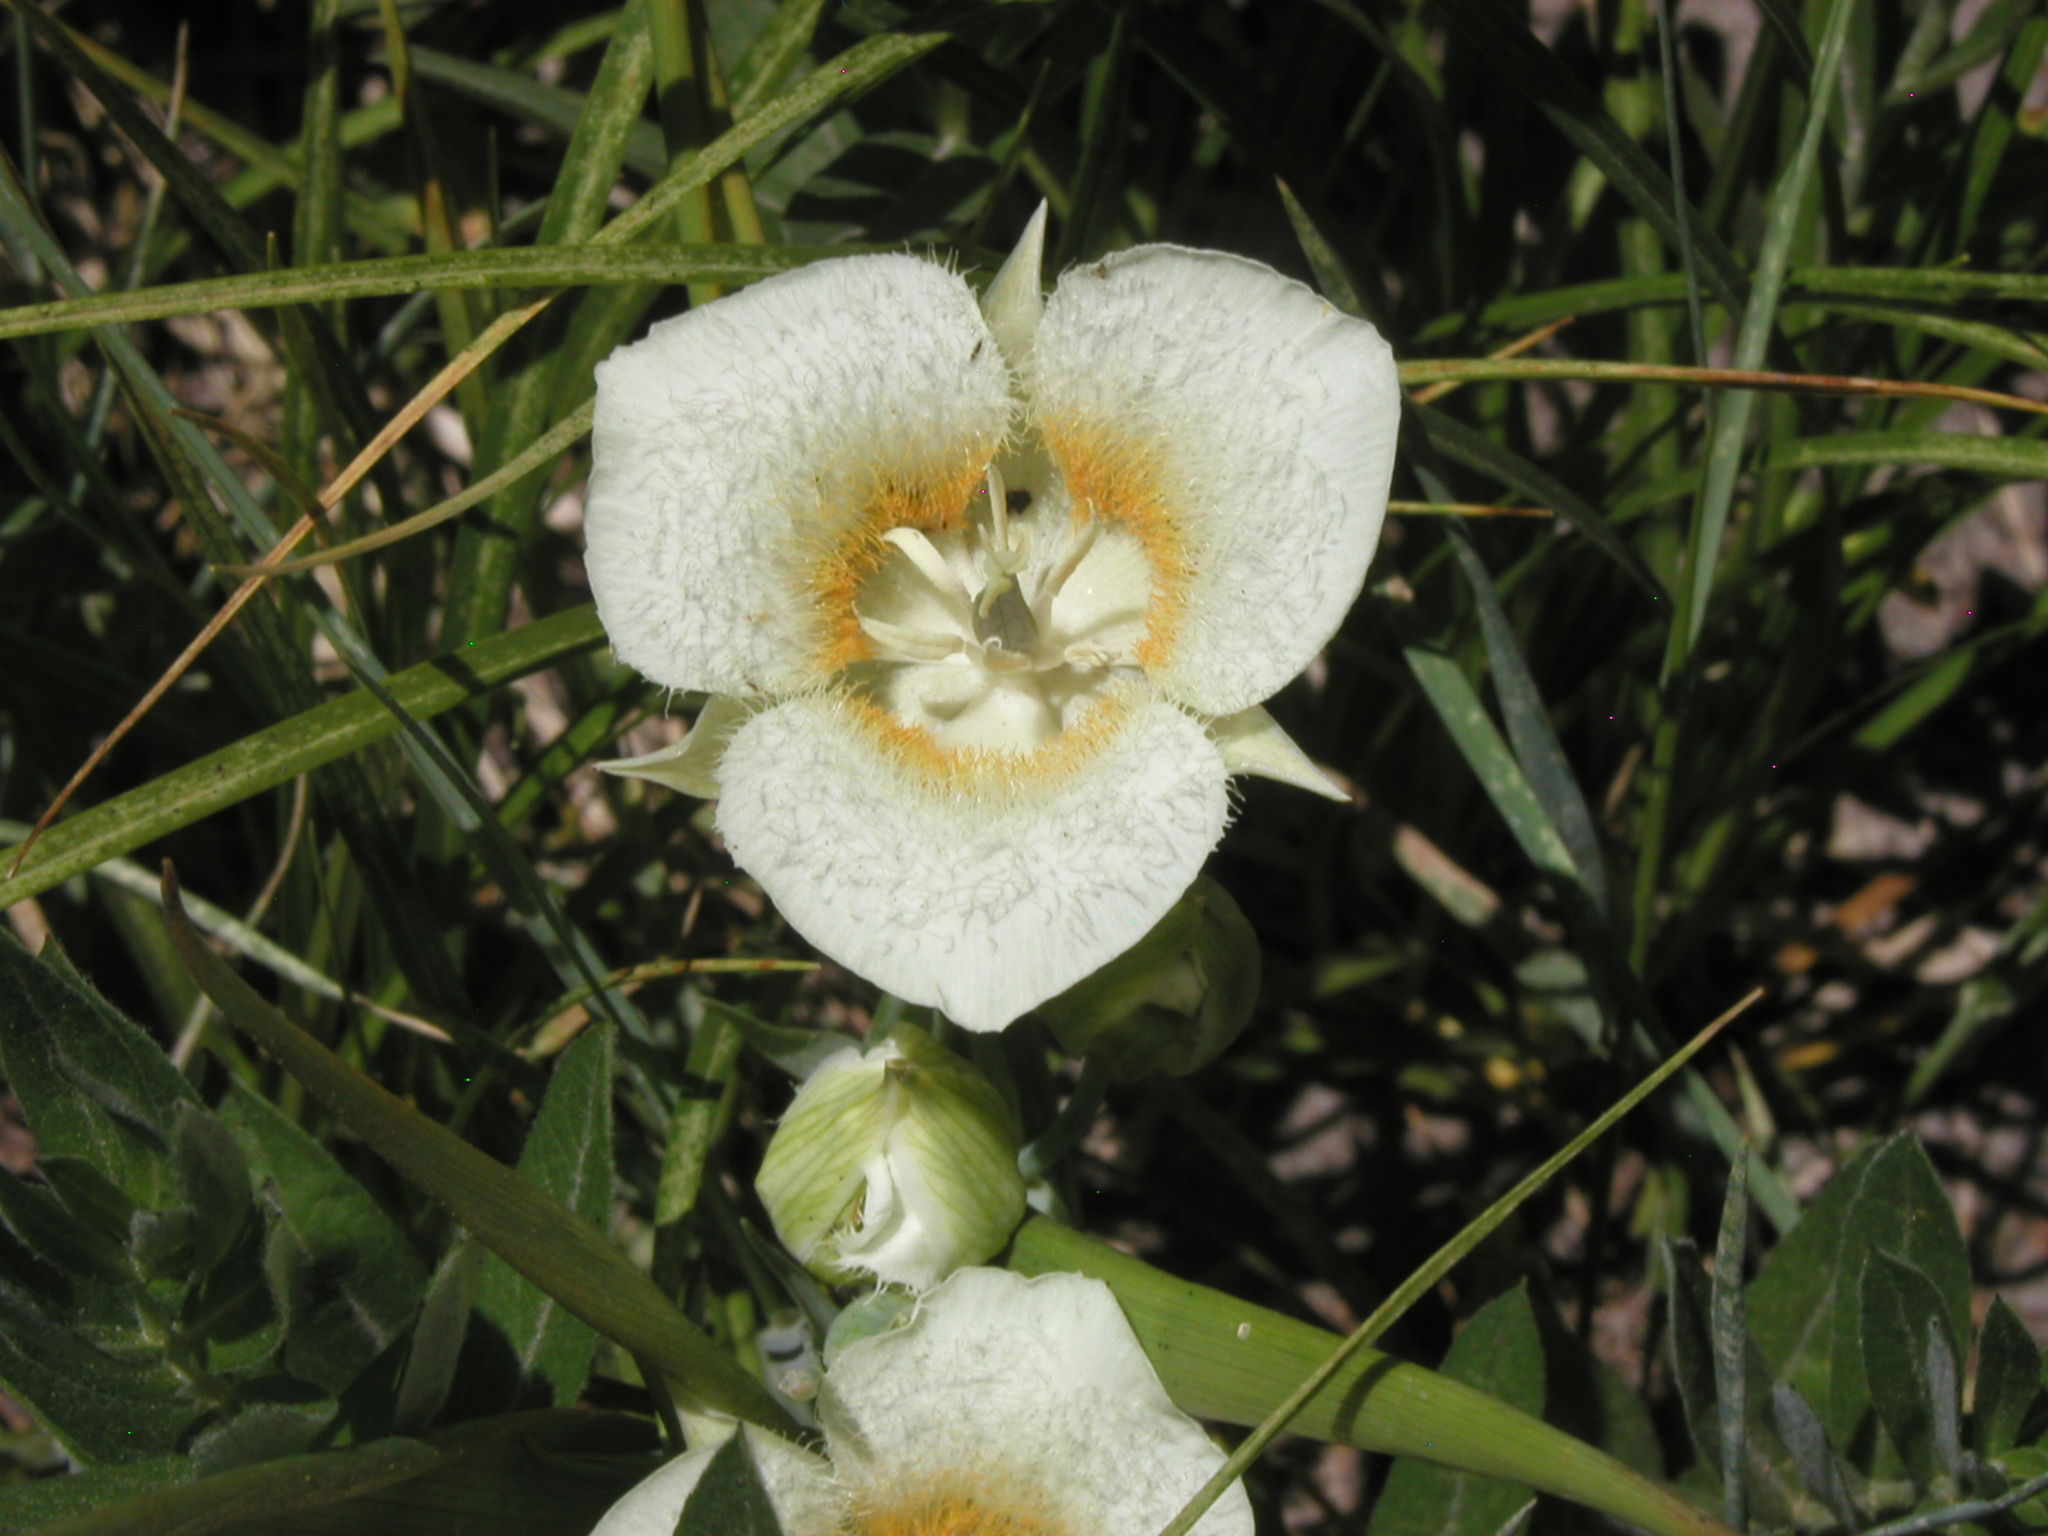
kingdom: Plantae
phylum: Tracheophyta
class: Liliopsida
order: Liliales
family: Liliaceae
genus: Calochortus
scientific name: Calochortus subalpinus
